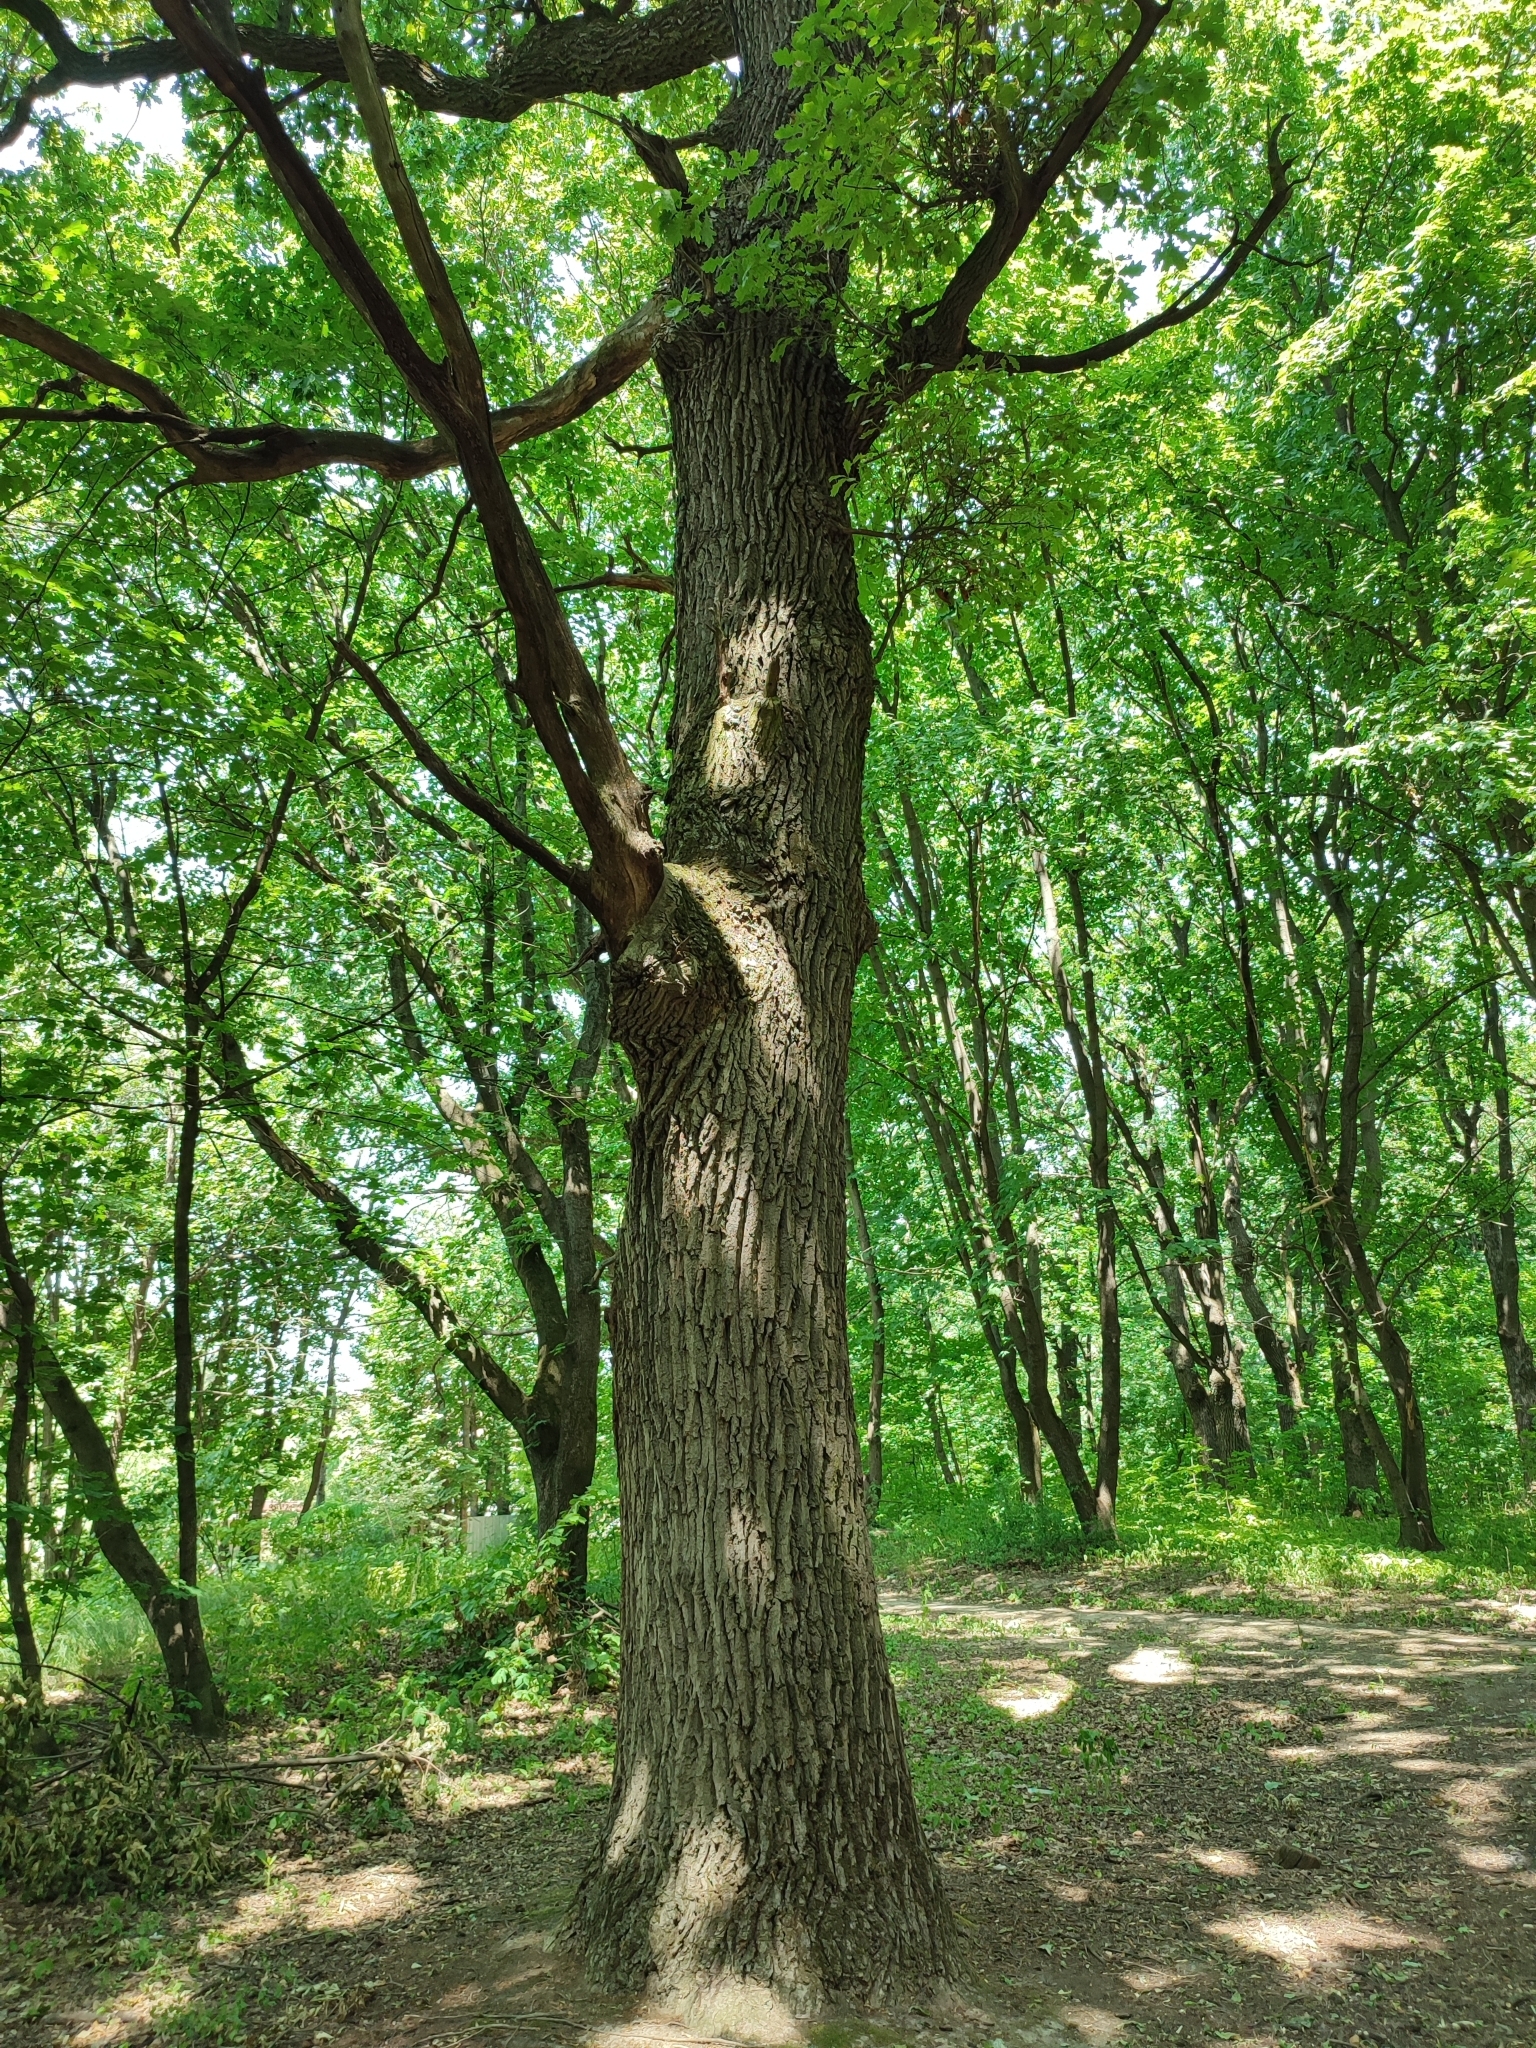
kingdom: Plantae
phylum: Tracheophyta
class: Magnoliopsida
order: Fagales
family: Fagaceae
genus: Quercus
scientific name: Quercus robur
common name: Pedunculate oak
